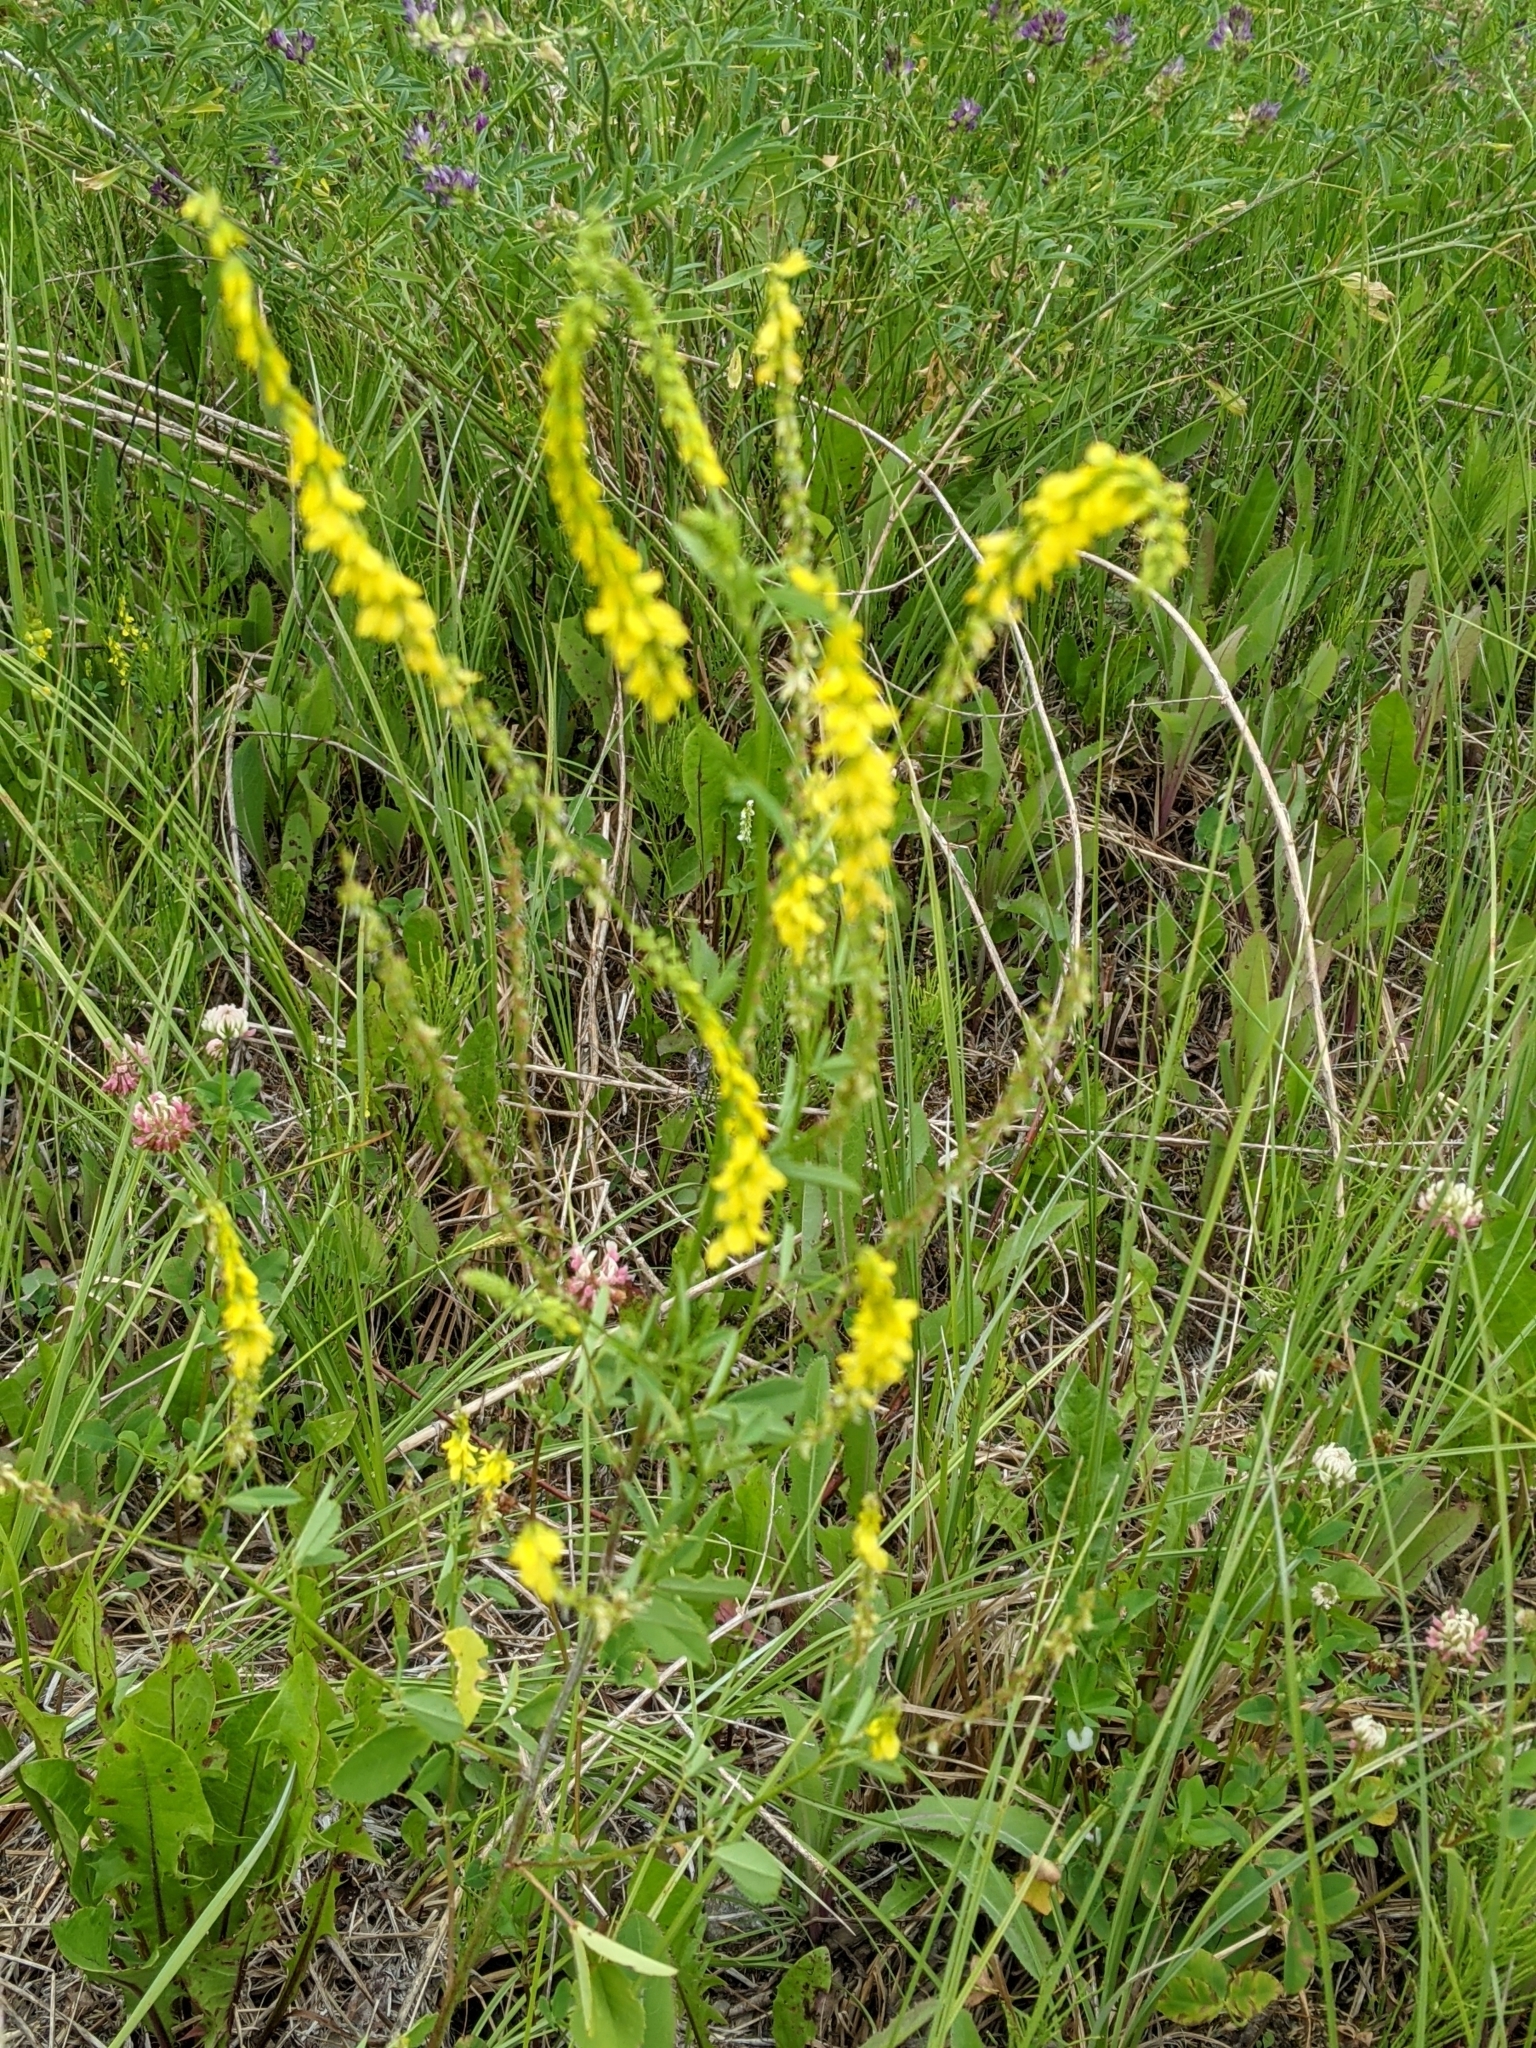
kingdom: Plantae
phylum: Tracheophyta
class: Magnoliopsida
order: Fabales
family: Fabaceae
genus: Melilotus
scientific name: Melilotus officinalis
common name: Sweetclover
